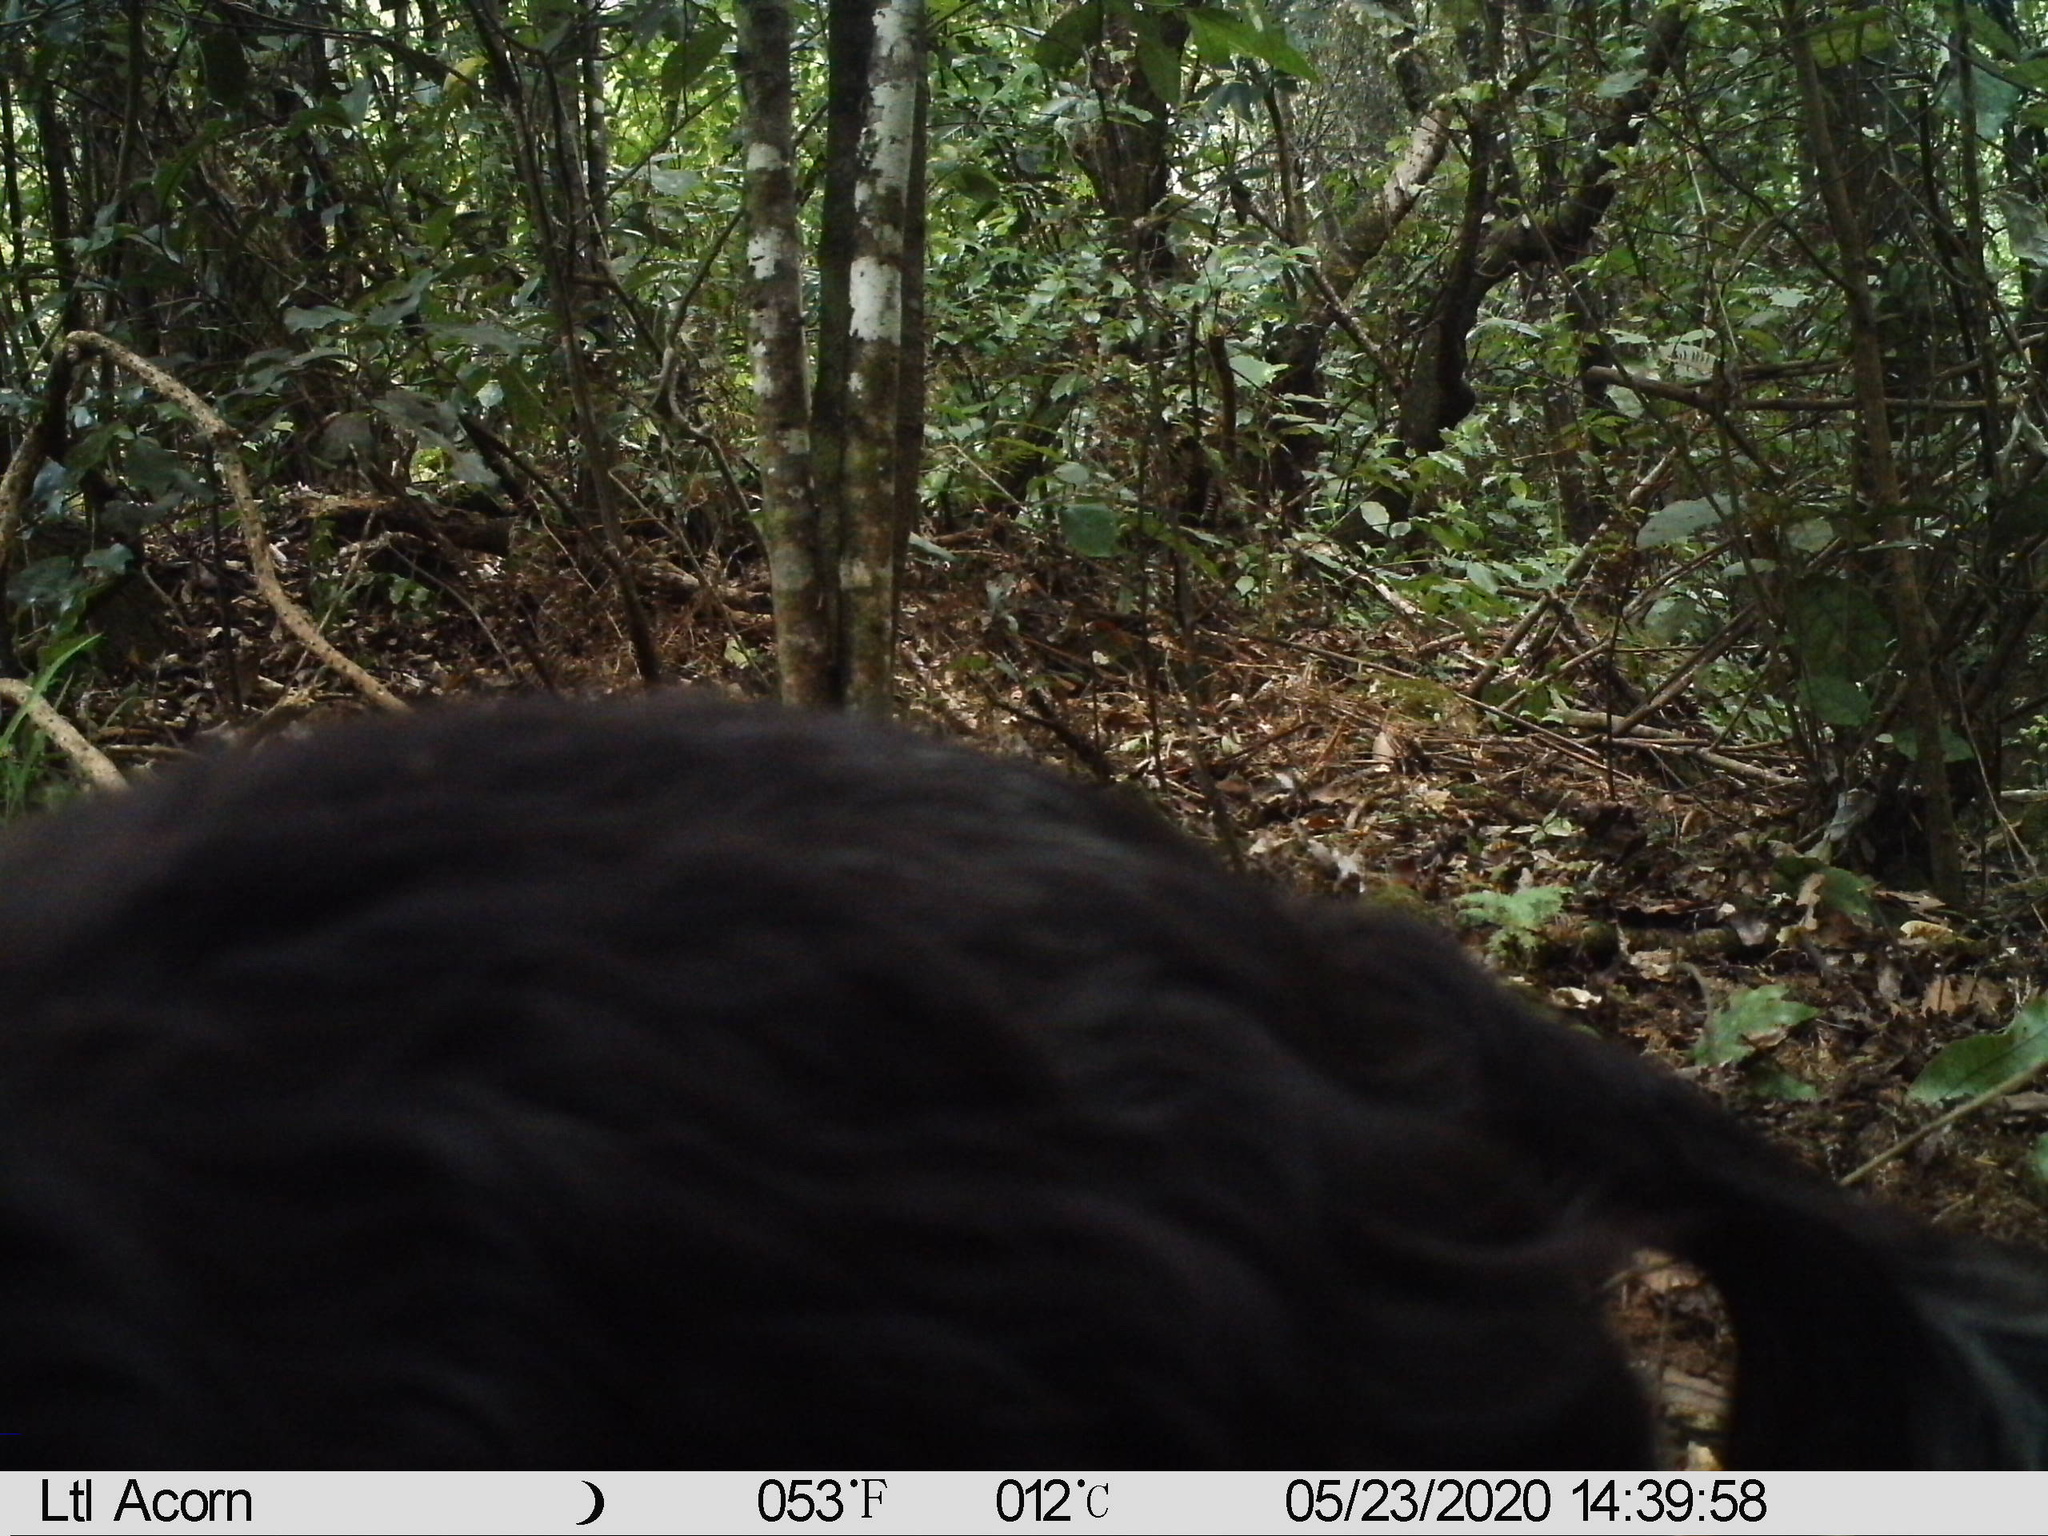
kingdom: Animalia
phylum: Chordata
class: Mammalia
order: Carnivora
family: Felidae
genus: Felis
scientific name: Felis catus
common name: Domestic cat
